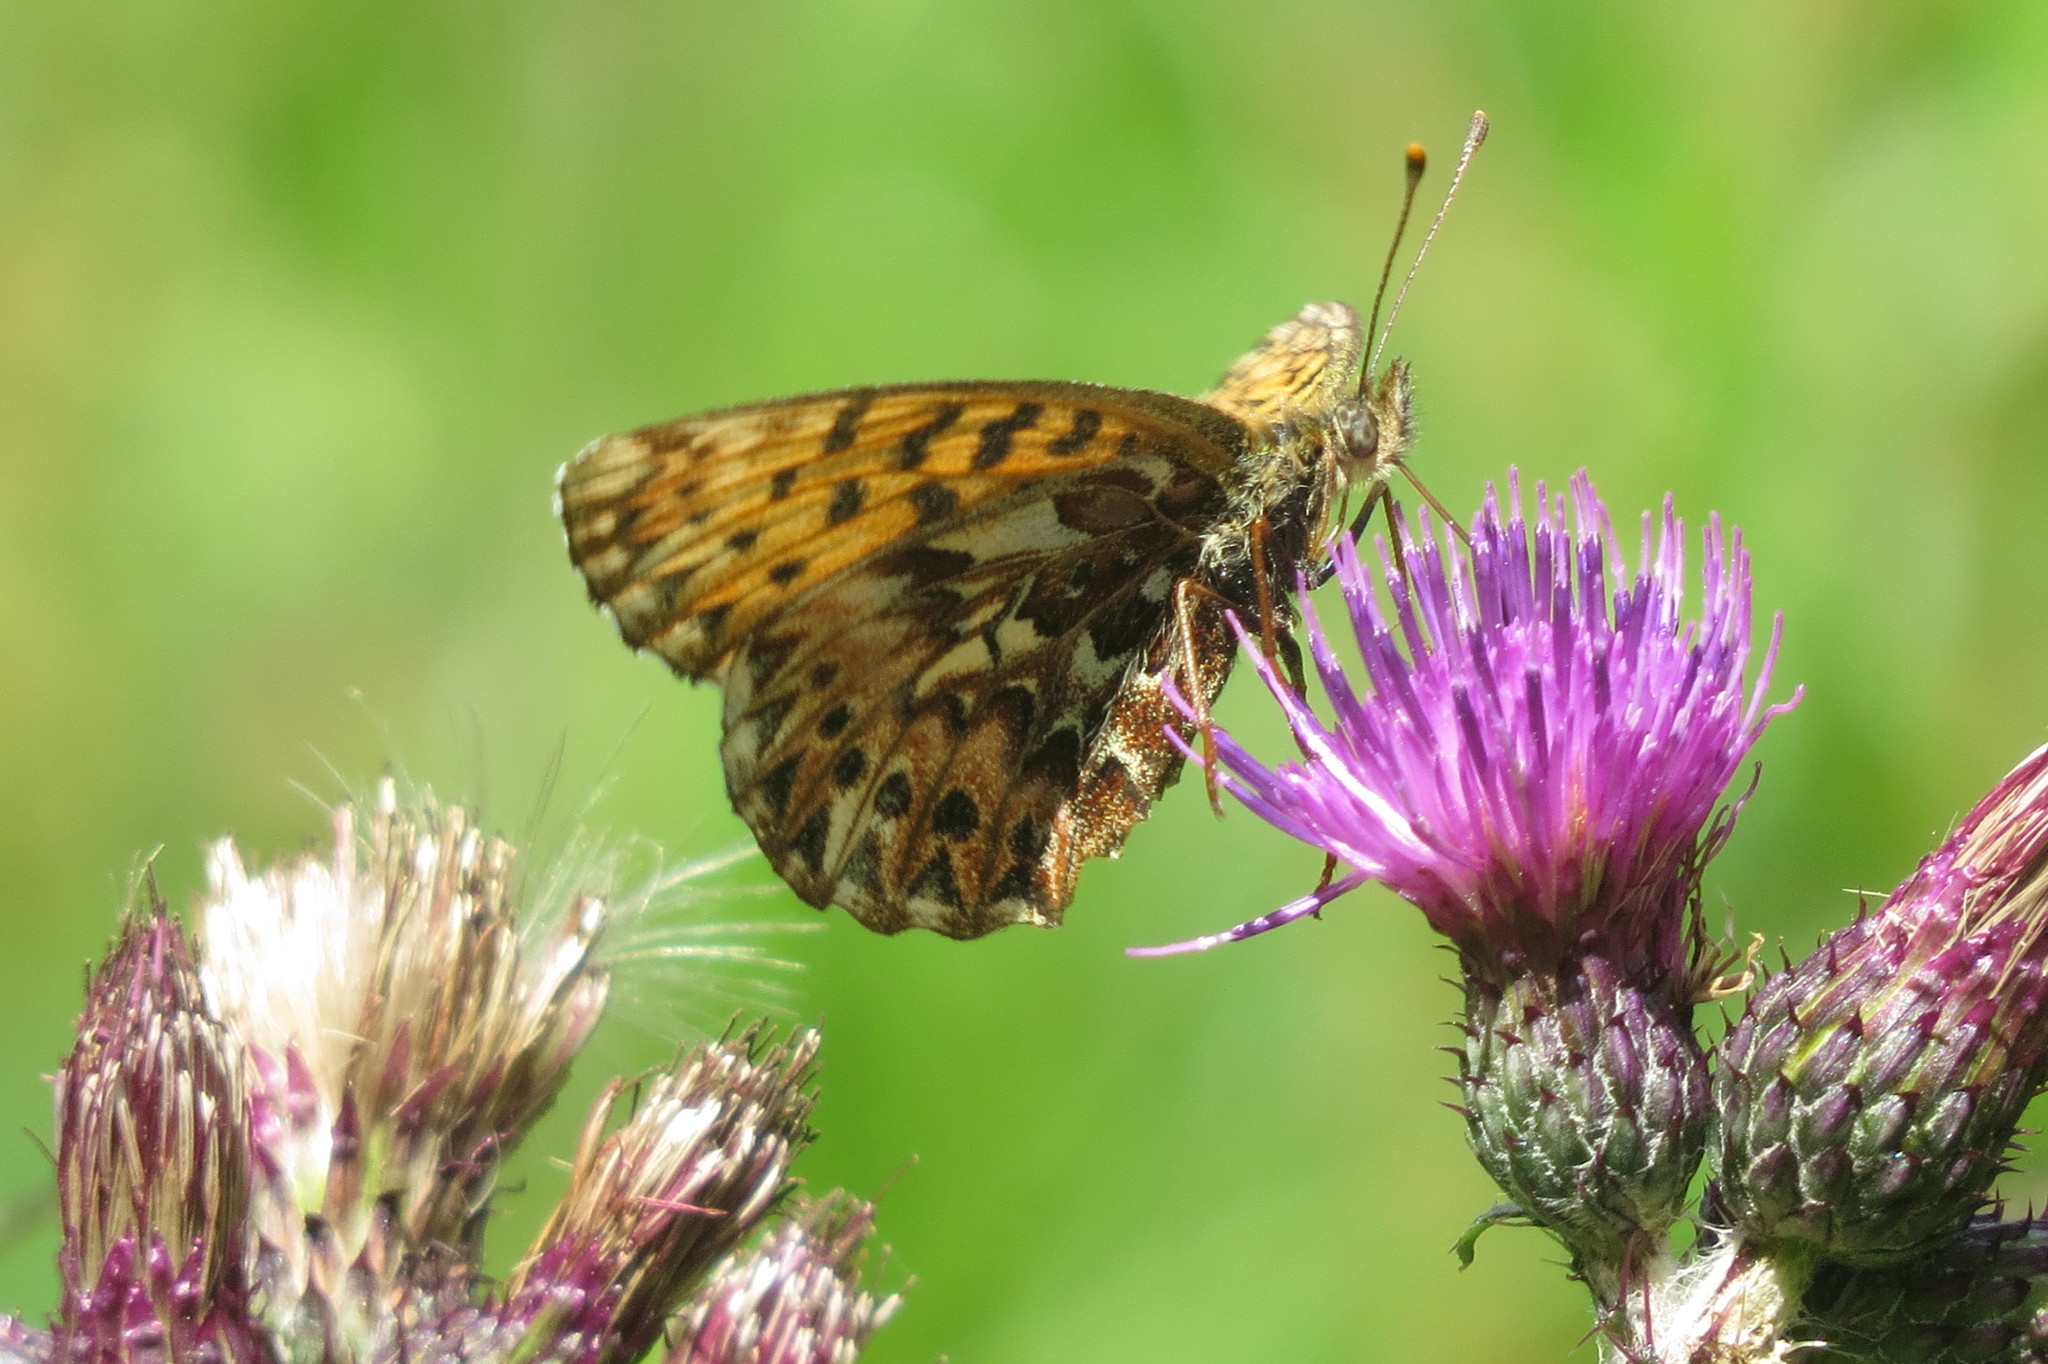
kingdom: Animalia
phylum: Arthropoda
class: Insecta
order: Lepidoptera
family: Nymphalidae
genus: Boloria
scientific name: Boloria titania
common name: Titania's fritillary
